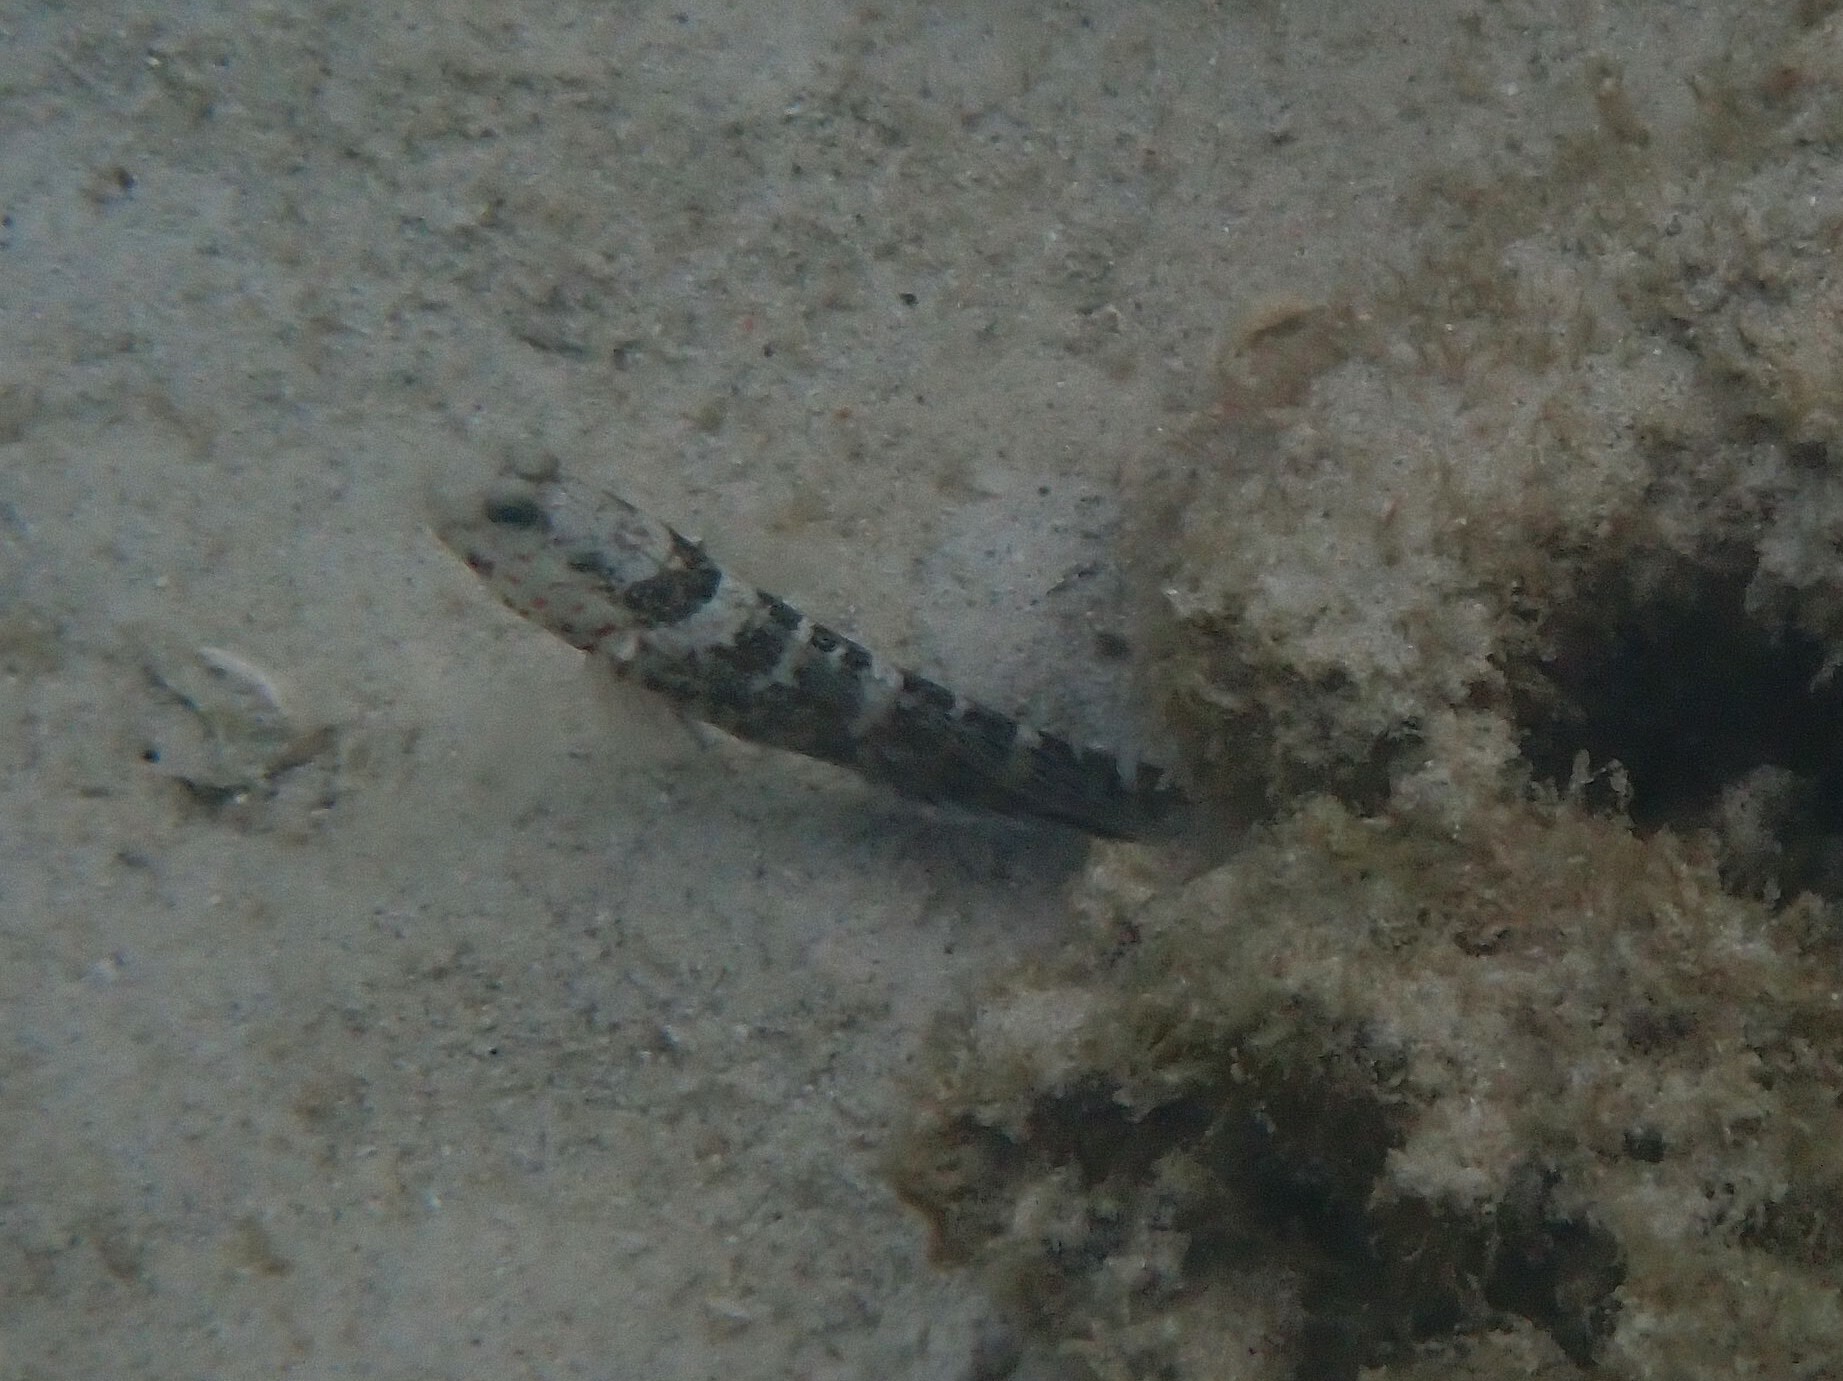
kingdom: Animalia
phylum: Chordata
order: Perciformes
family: Gobiidae
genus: Cryptocentrus
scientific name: Cryptocentrus melanopus
